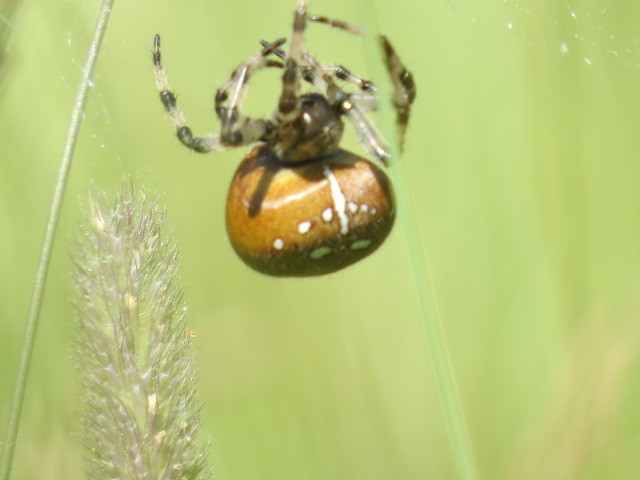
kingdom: Animalia
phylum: Arthropoda
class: Arachnida
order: Araneae
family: Araneidae
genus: Araneus
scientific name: Araneus quadratus
